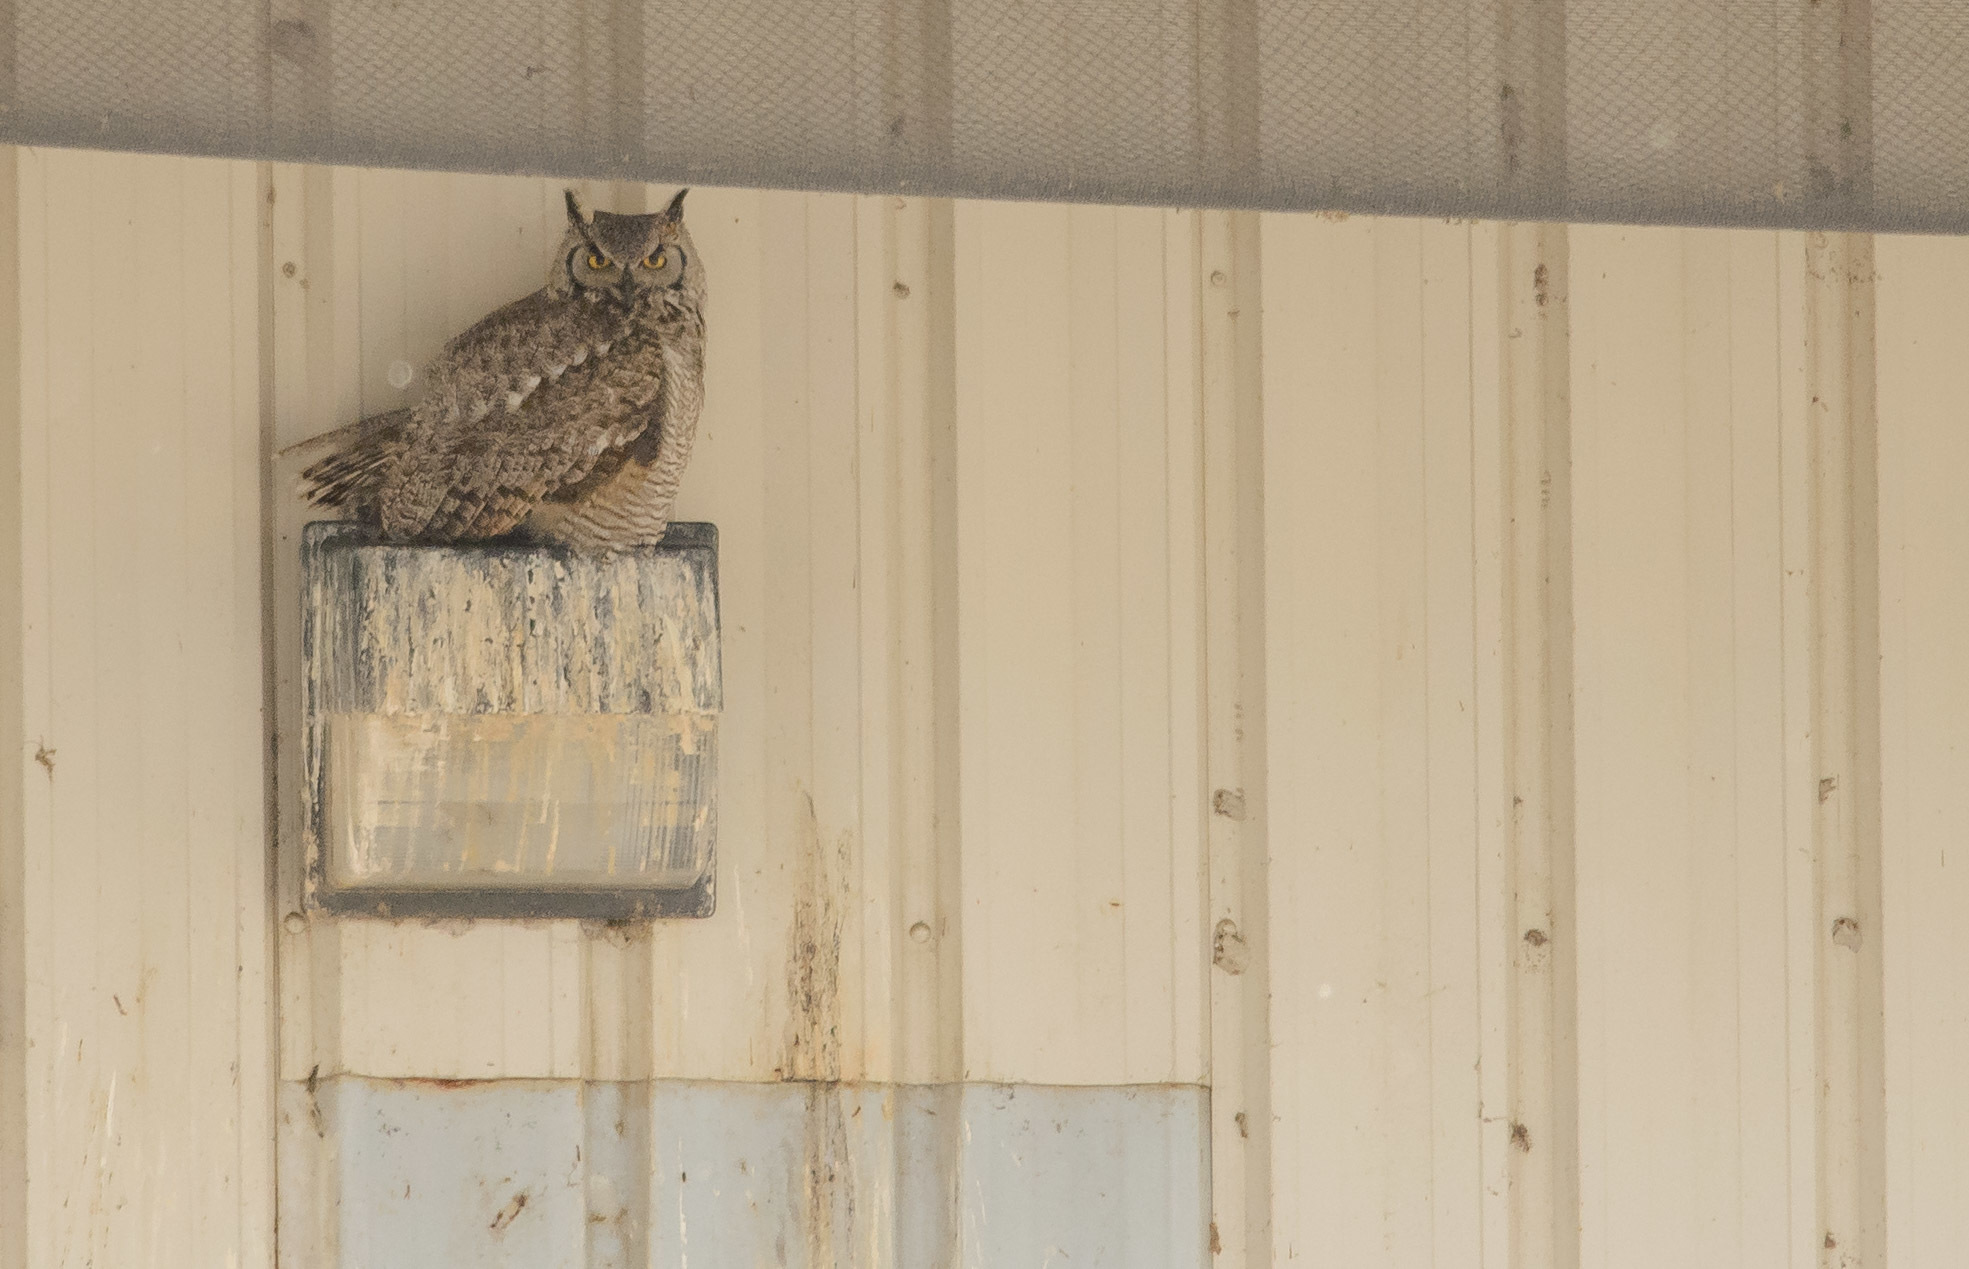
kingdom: Animalia
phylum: Chordata
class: Aves
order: Strigiformes
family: Strigidae
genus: Bubo
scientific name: Bubo virginianus
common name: Great horned owl
